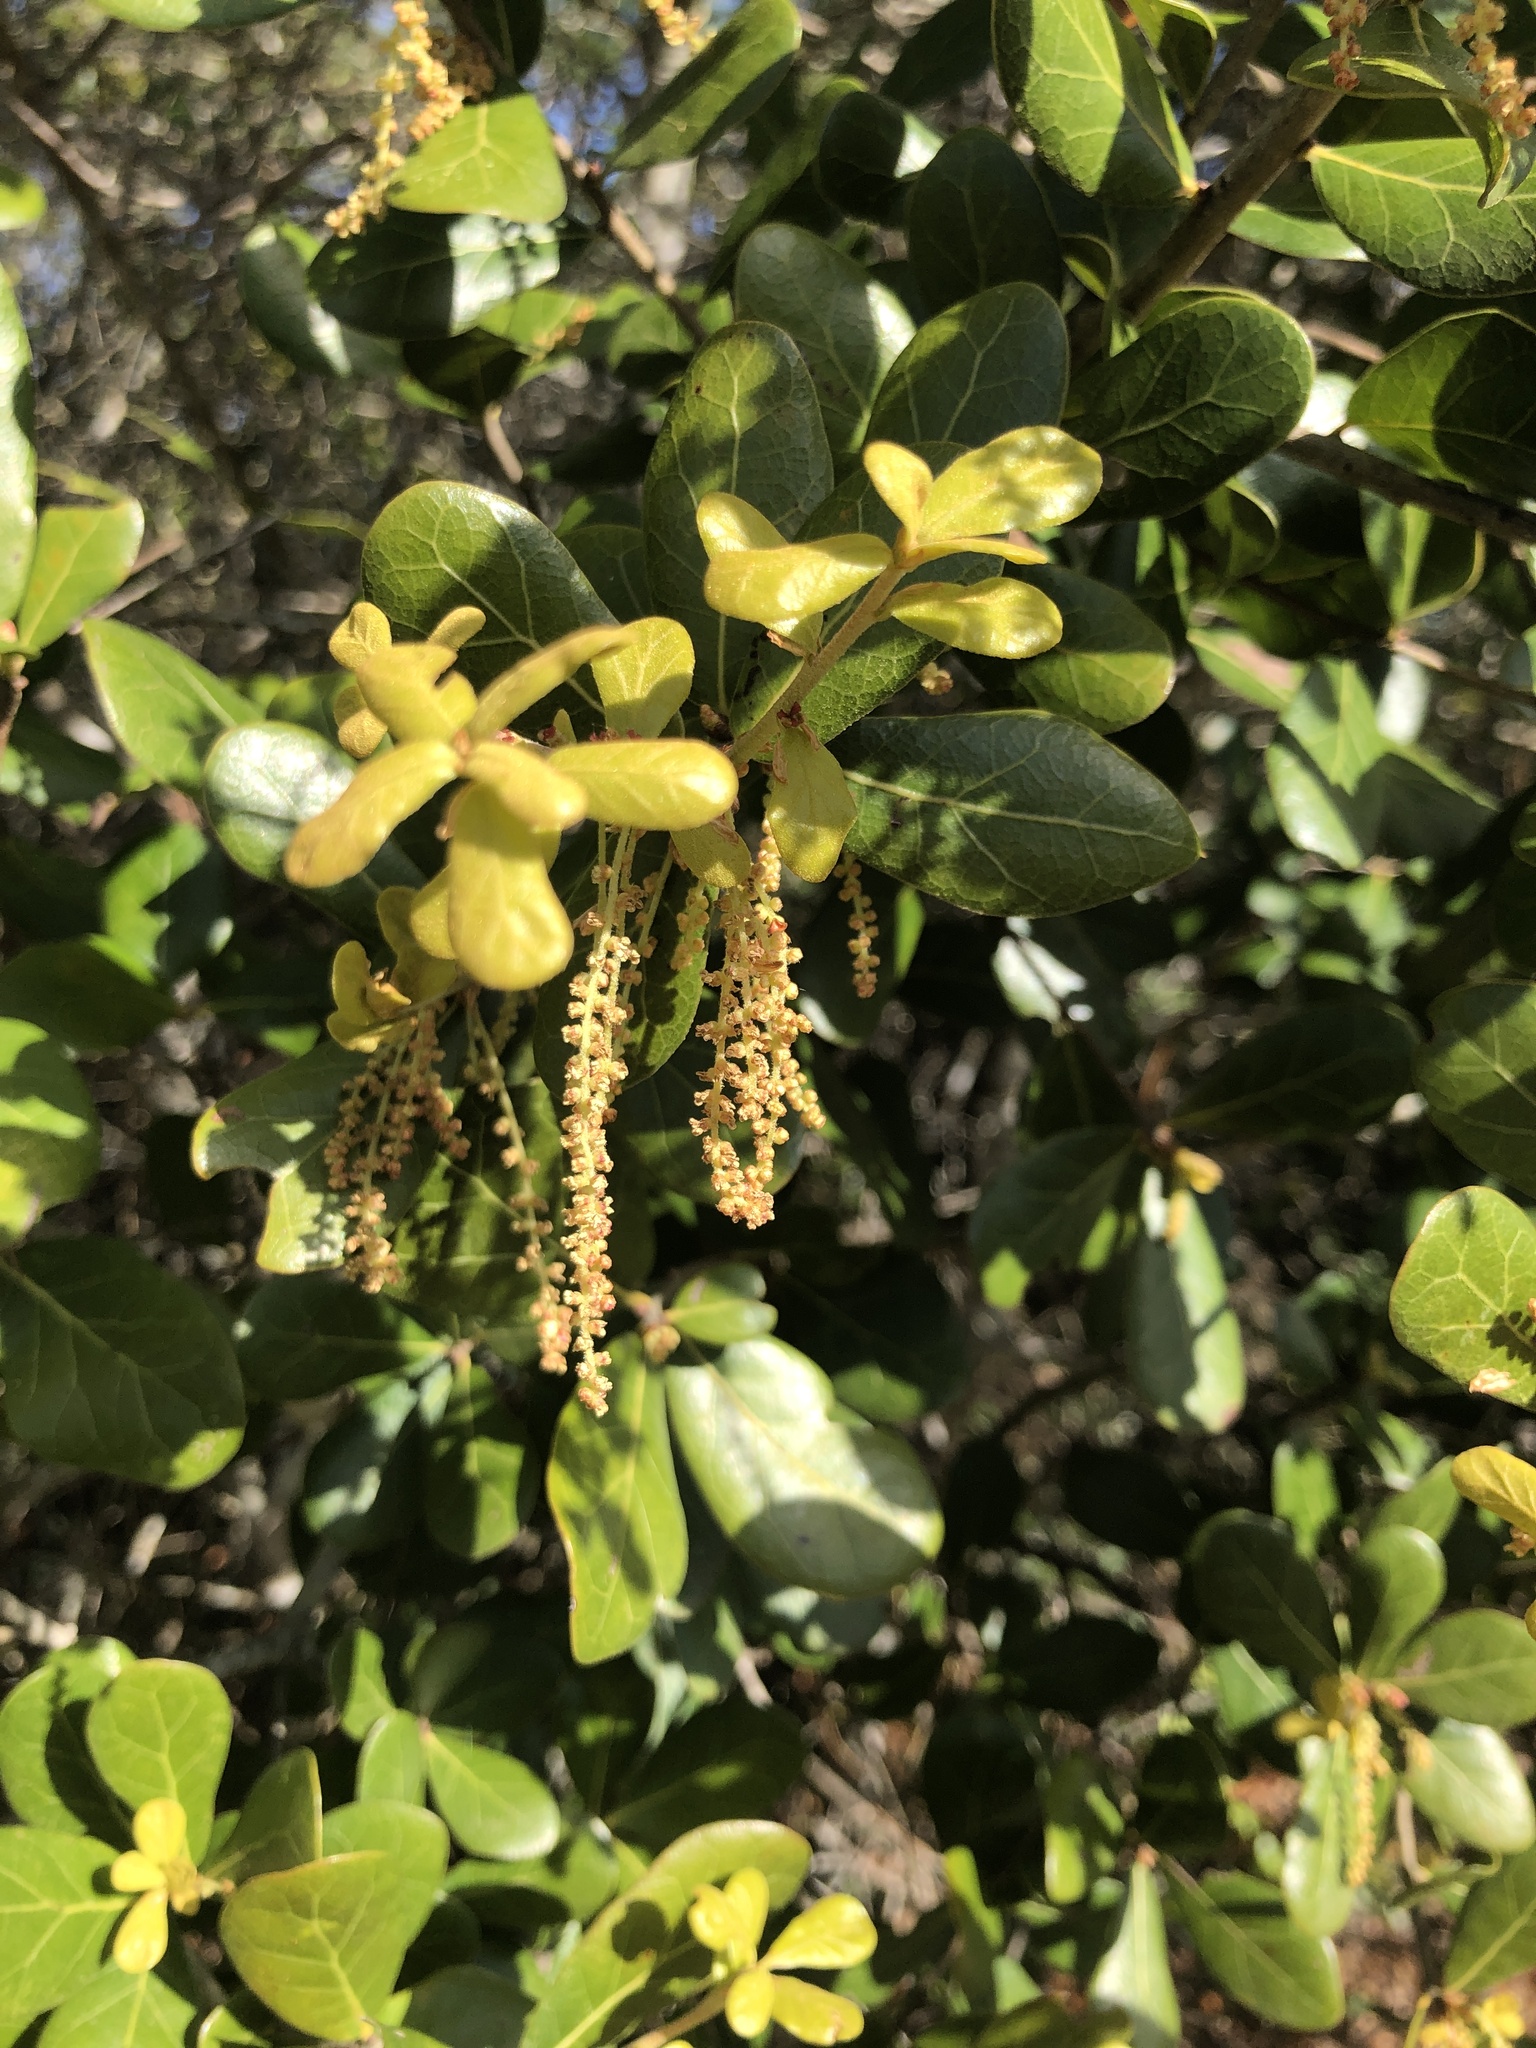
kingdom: Plantae
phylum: Tracheophyta
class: Magnoliopsida
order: Fagales
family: Fagaceae
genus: Quercus
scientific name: Quercus myrtifolia
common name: Myrtle oak
